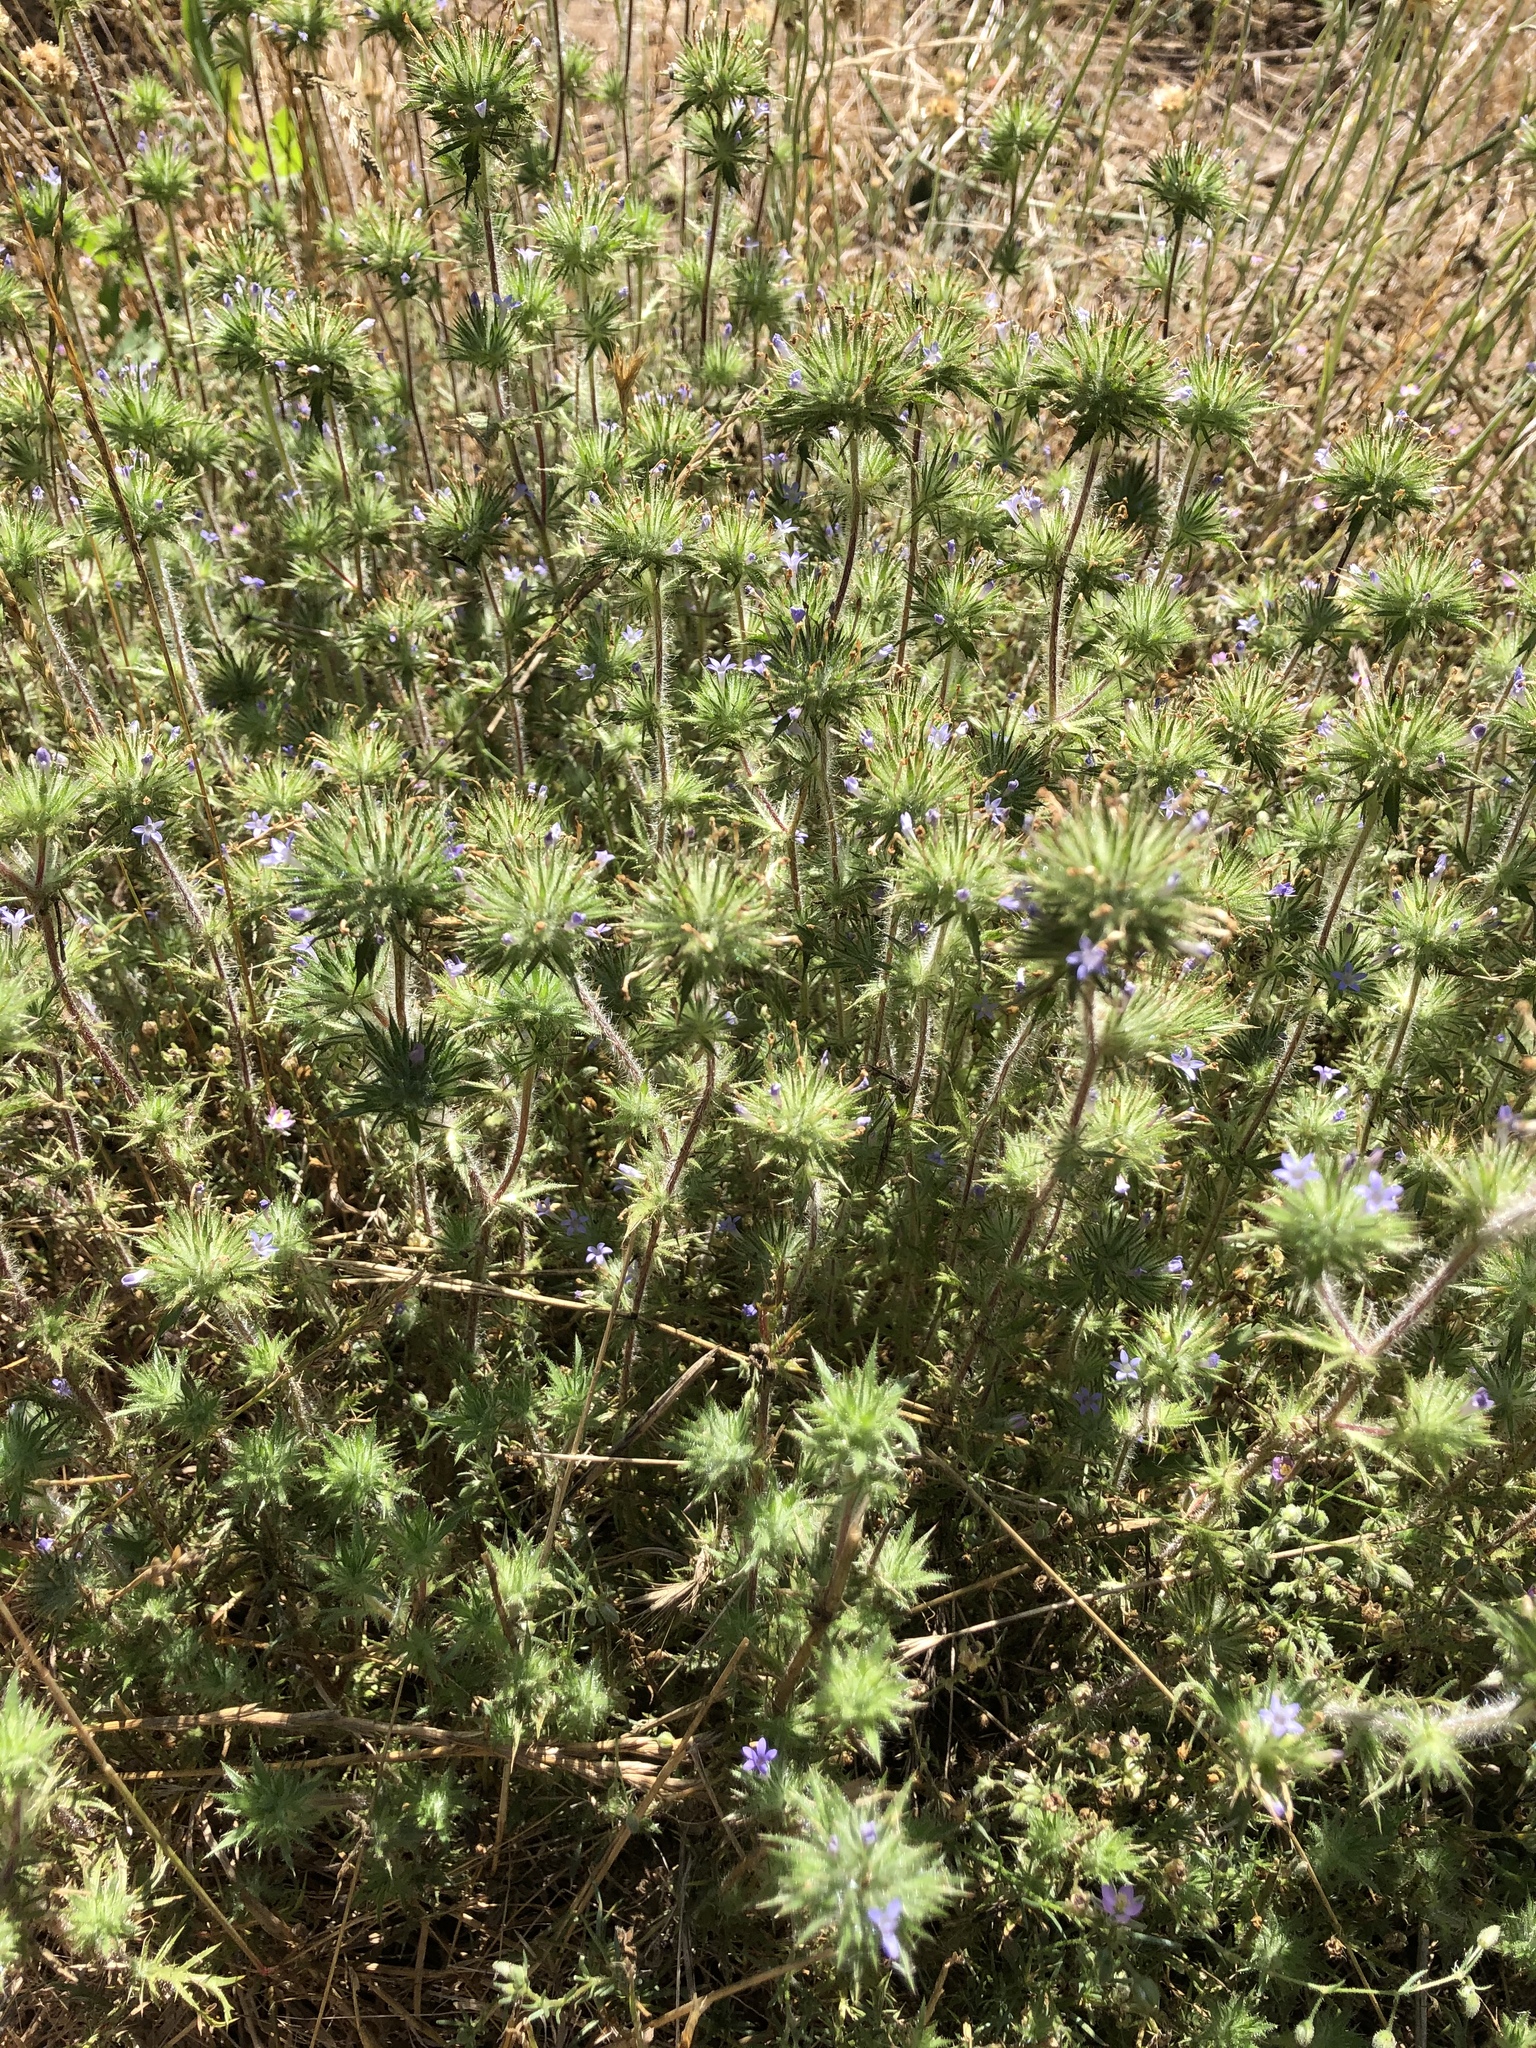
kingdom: Plantae
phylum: Tracheophyta
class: Magnoliopsida
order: Ericales
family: Polemoniaceae
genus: Navarretia
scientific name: Navarretia squarrosa
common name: Skunkweed
